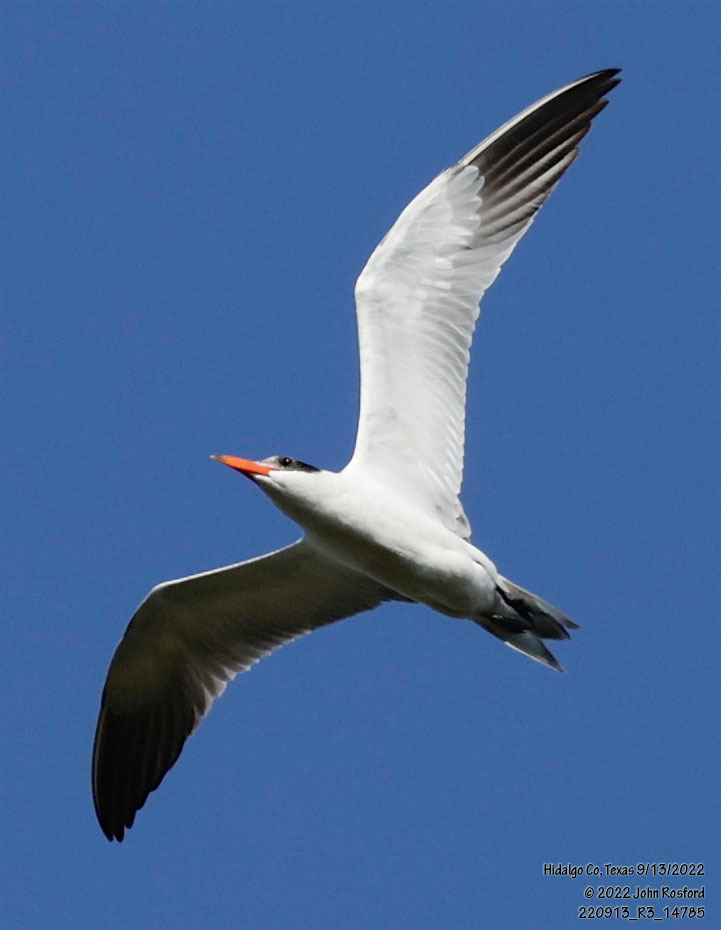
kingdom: Animalia
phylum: Chordata
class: Aves
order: Charadriiformes
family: Laridae
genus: Hydroprogne
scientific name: Hydroprogne caspia
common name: Caspian tern
